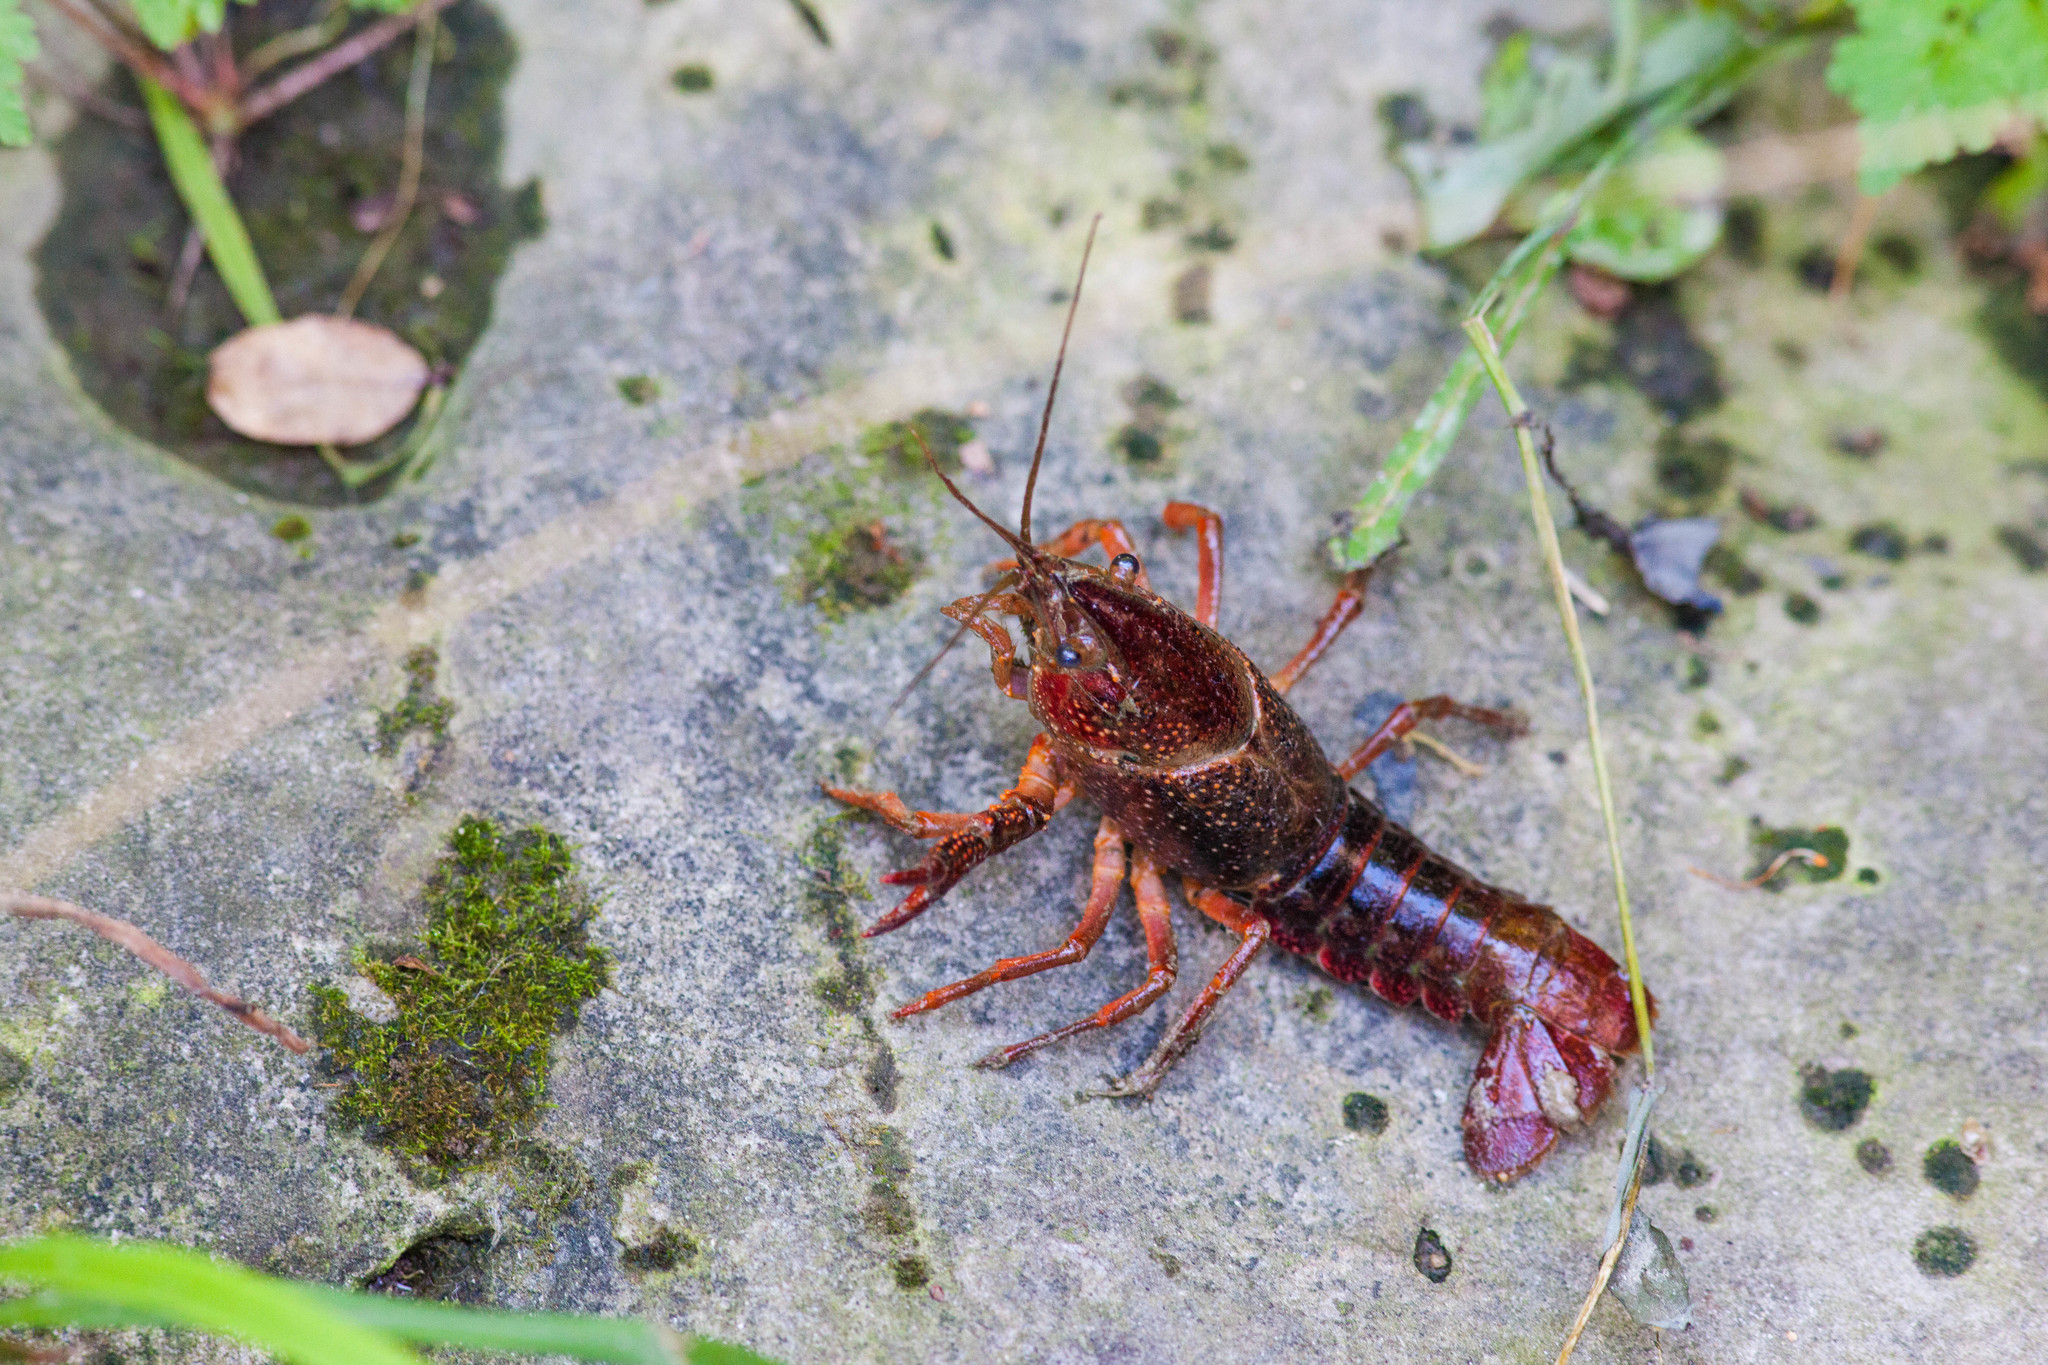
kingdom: Animalia
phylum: Arthropoda
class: Malacostraca
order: Decapoda
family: Cambaridae
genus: Procambarus
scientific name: Procambarus clarkii
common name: Red swamp crayfish
